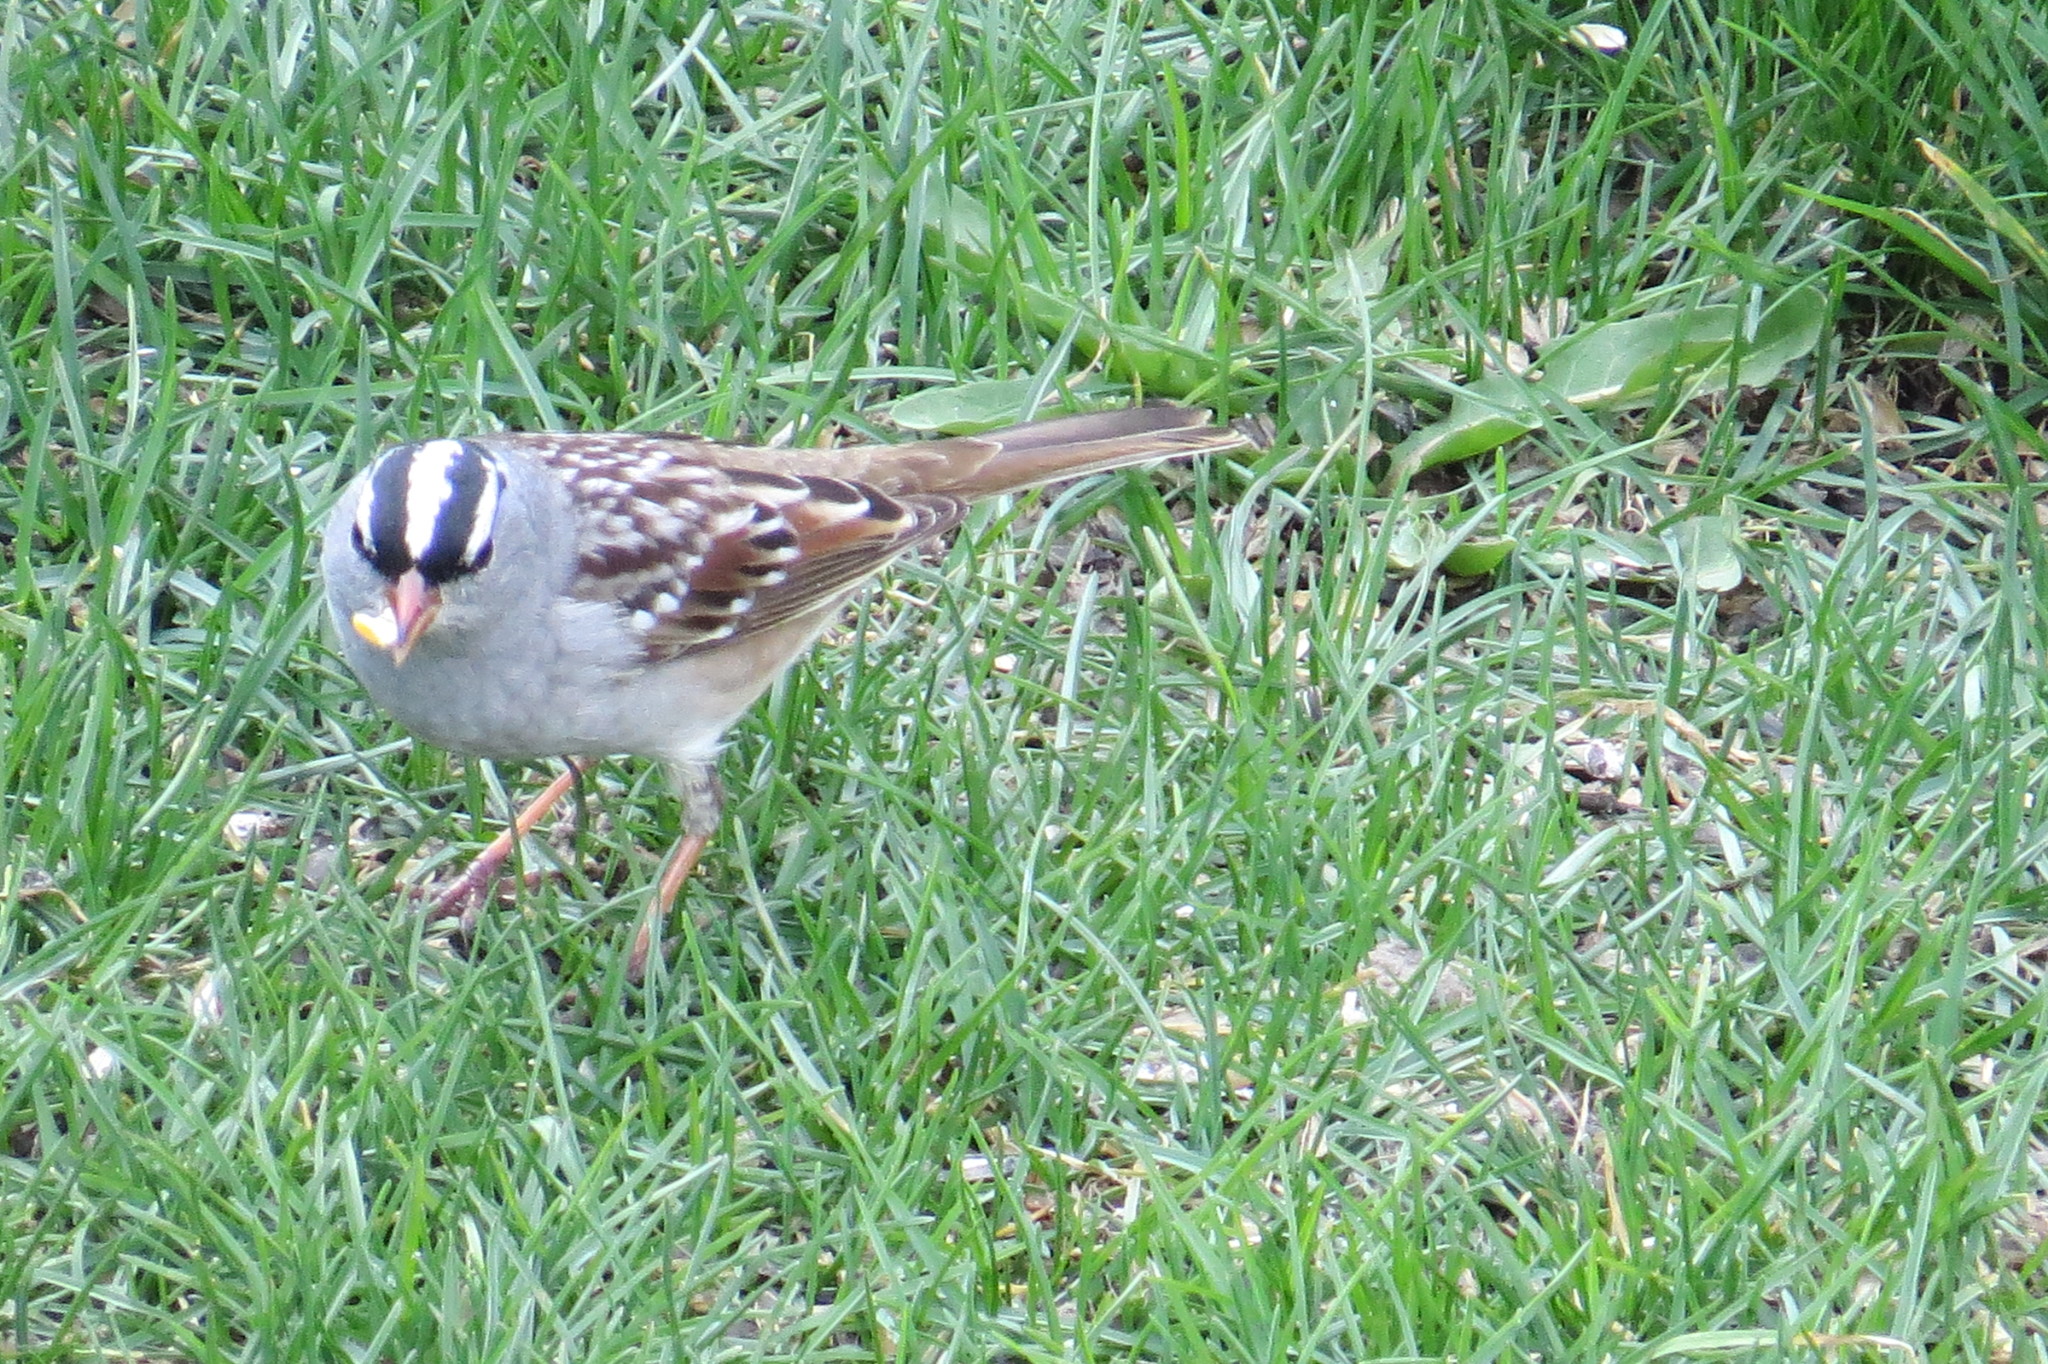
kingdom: Animalia
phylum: Chordata
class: Aves
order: Passeriformes
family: Passerellidae
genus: Zonotrichia
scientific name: Zonotrichia leucophrys
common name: White-crowned sparrow
